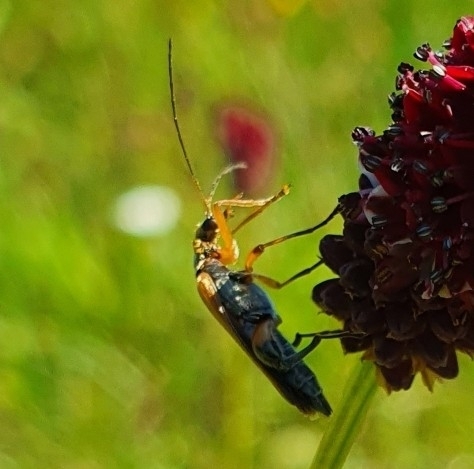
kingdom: Animalia
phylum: Arthropoda
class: Insecta
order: Coleoptera
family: Oedemeridae
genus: Oedemera
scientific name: Oedemera podagrariae
